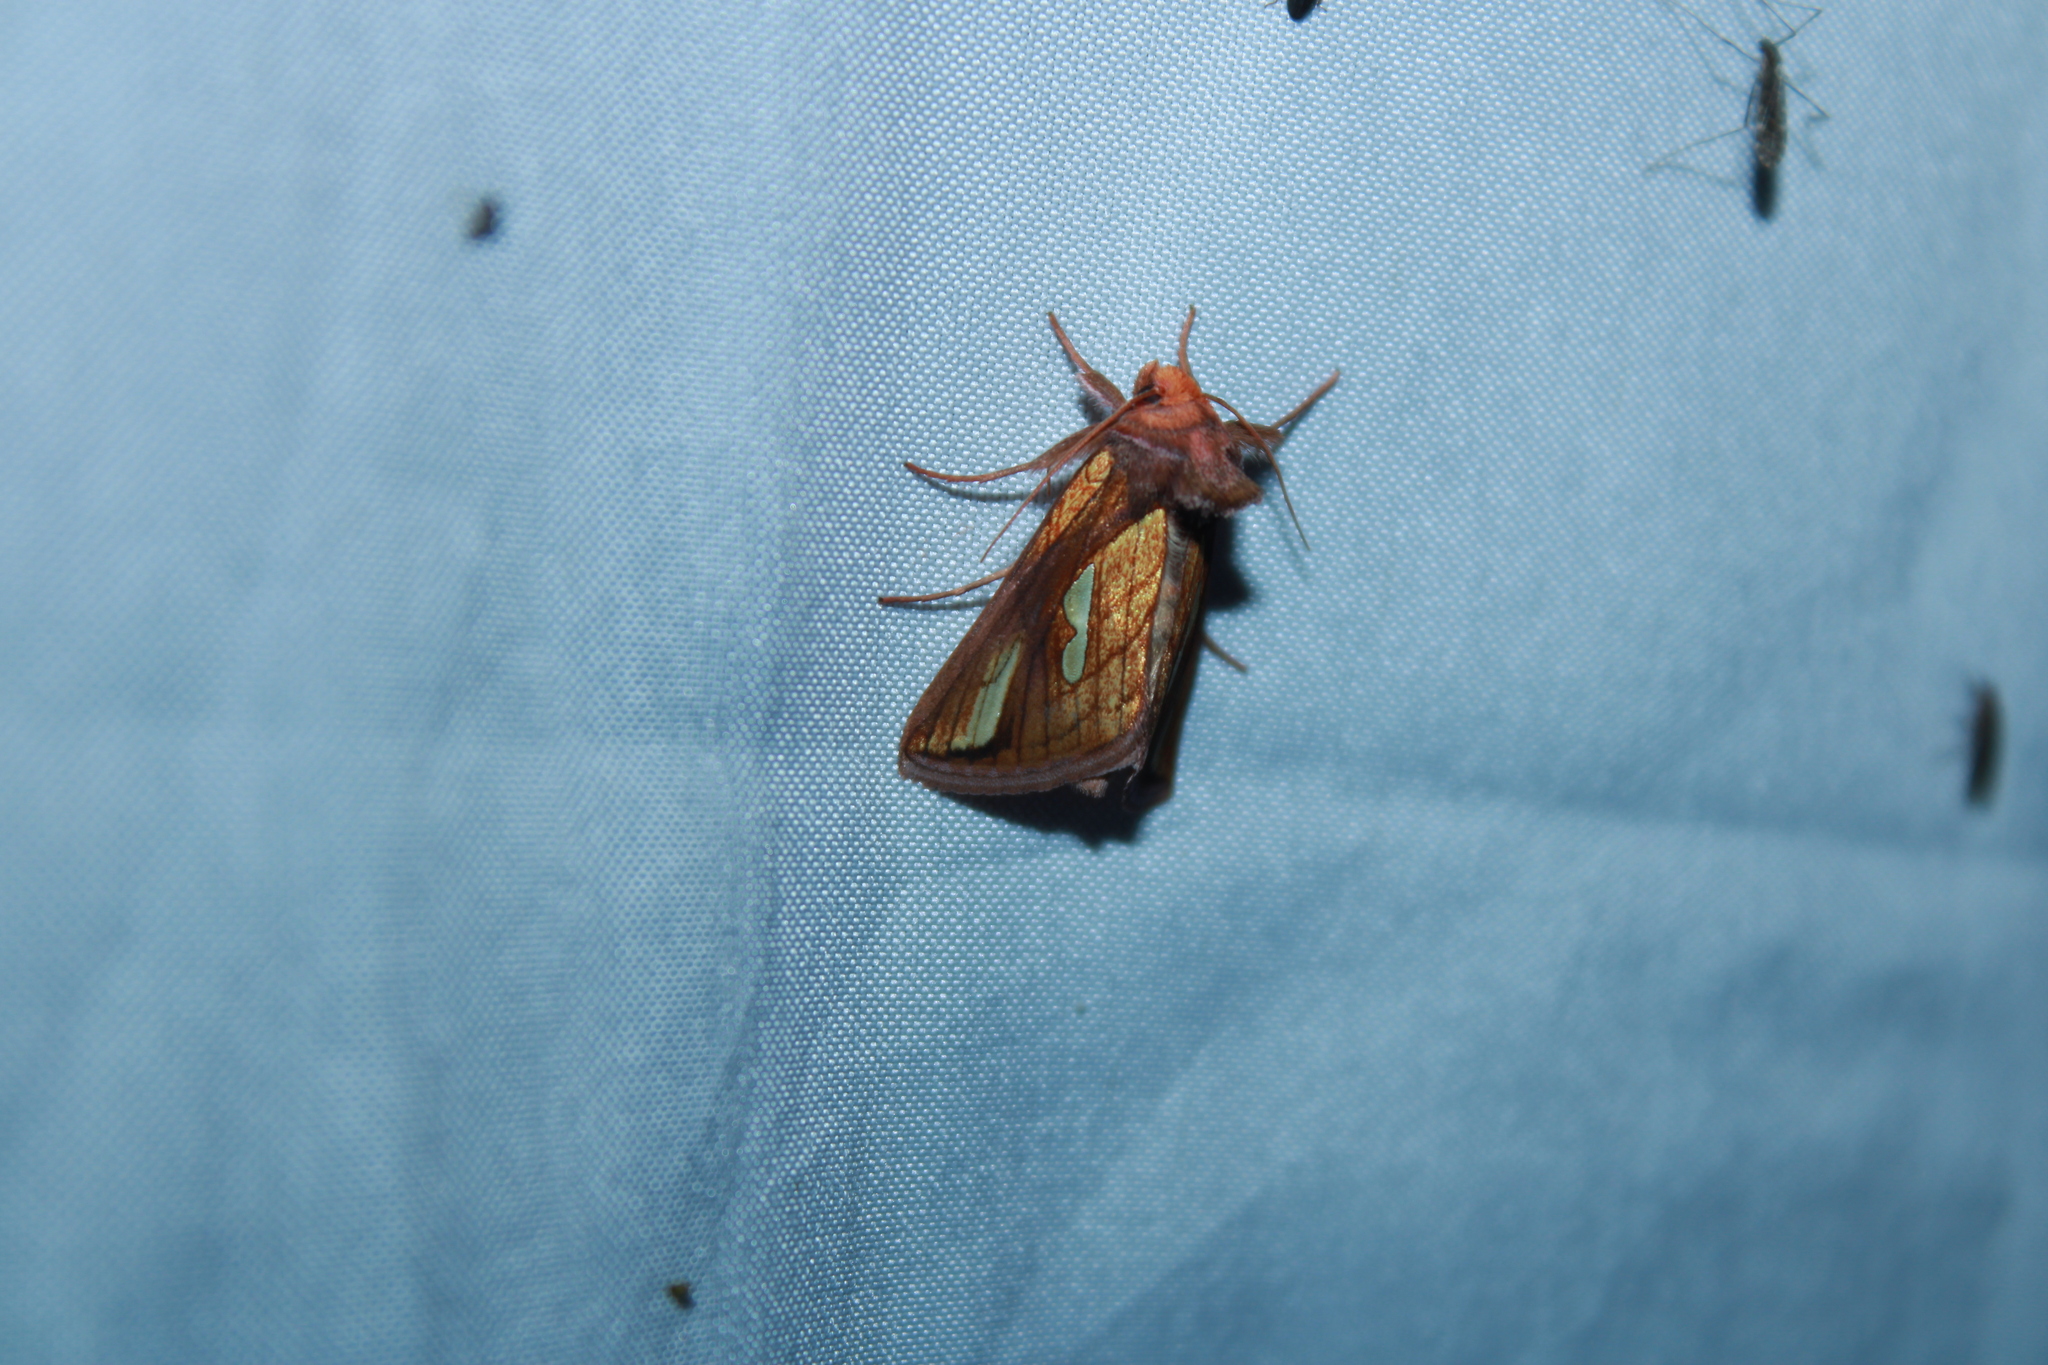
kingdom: Animalia
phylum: Arthropoda
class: Insecta
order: Lepidoptera
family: Noctuidae
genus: Plusia
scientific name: Plusia contexta
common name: Connected looper moth
